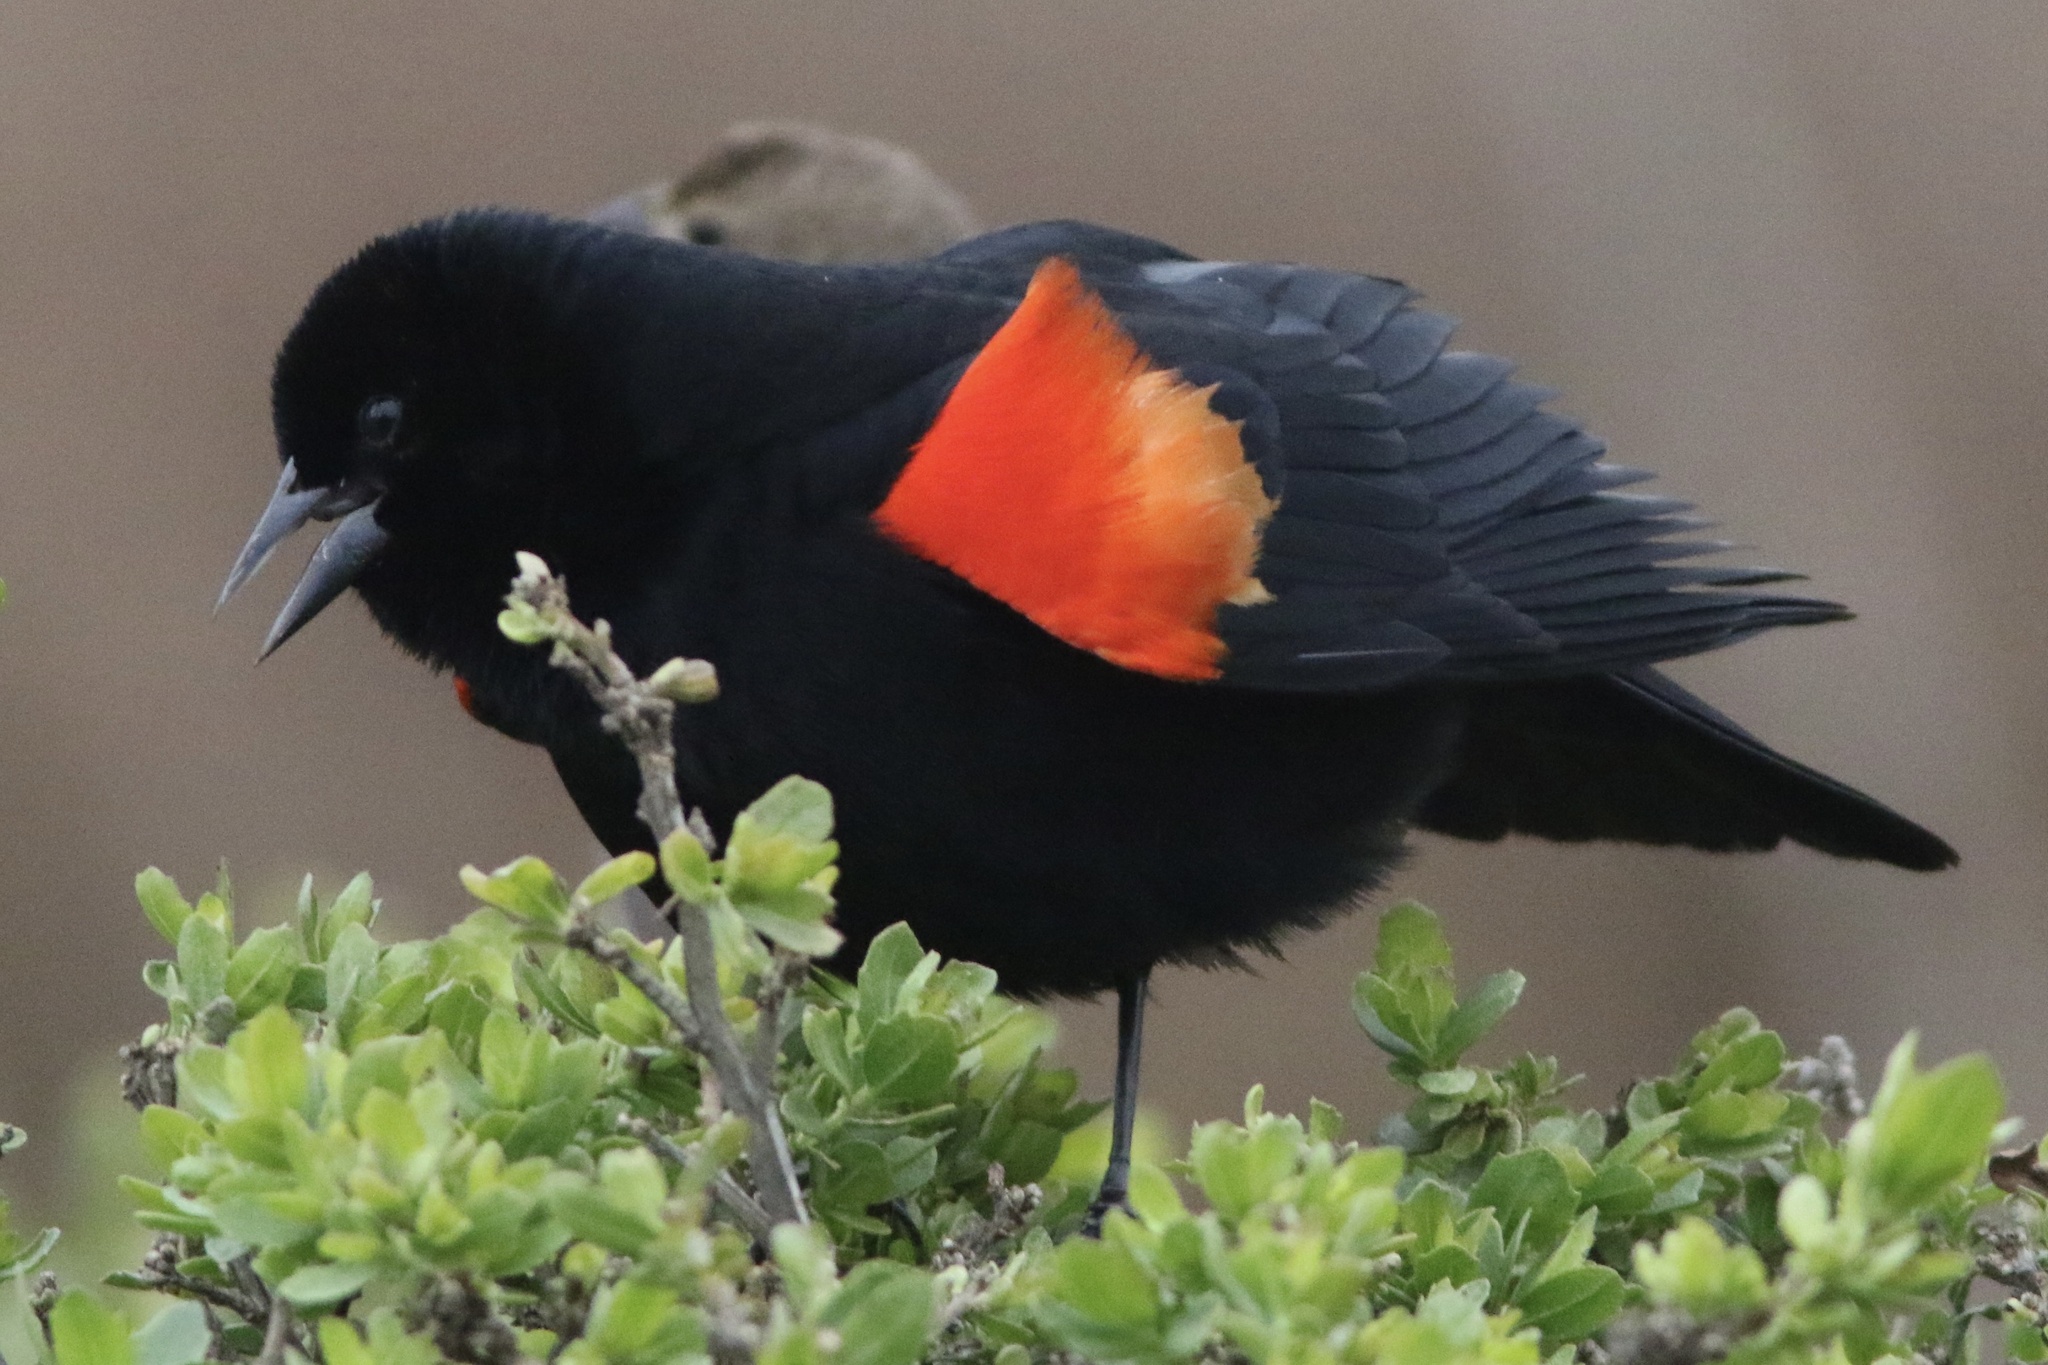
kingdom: Animalia
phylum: Chordata
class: Aves
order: Passeriformes
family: Icteridae
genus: Agelaius
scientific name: Agelaius phoeniceus
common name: Red-winged blackbird
